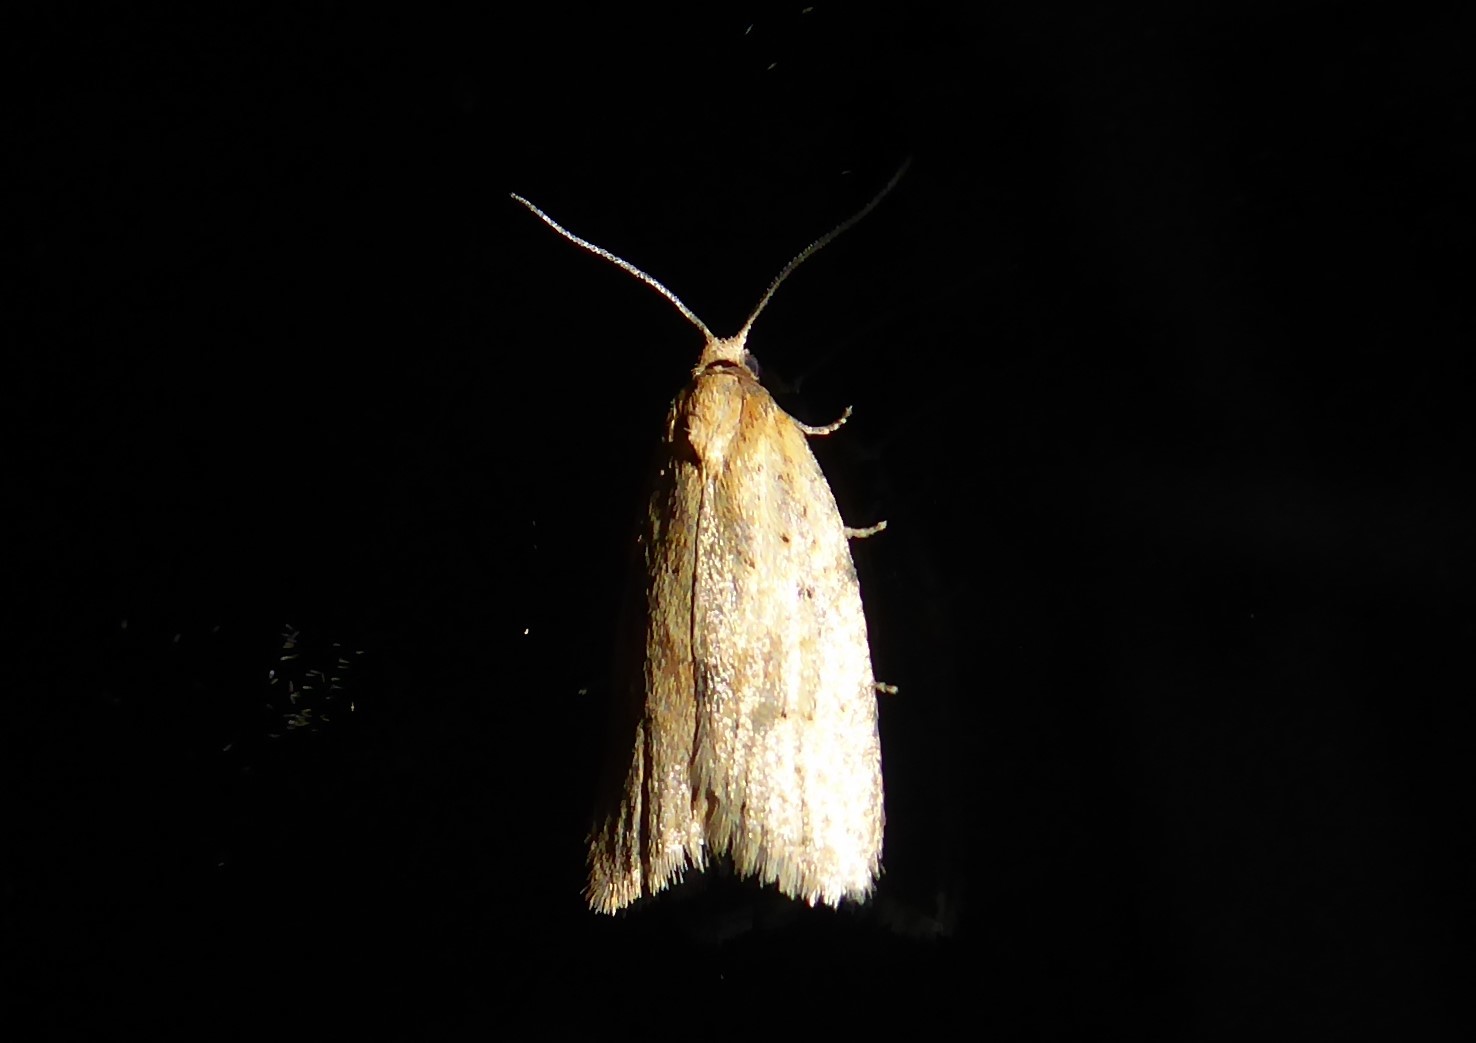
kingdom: Animalia
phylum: Arthropoda
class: Insecta
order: Lepidoptera
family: Tortricidae
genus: Clepsis
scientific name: Clepsis
